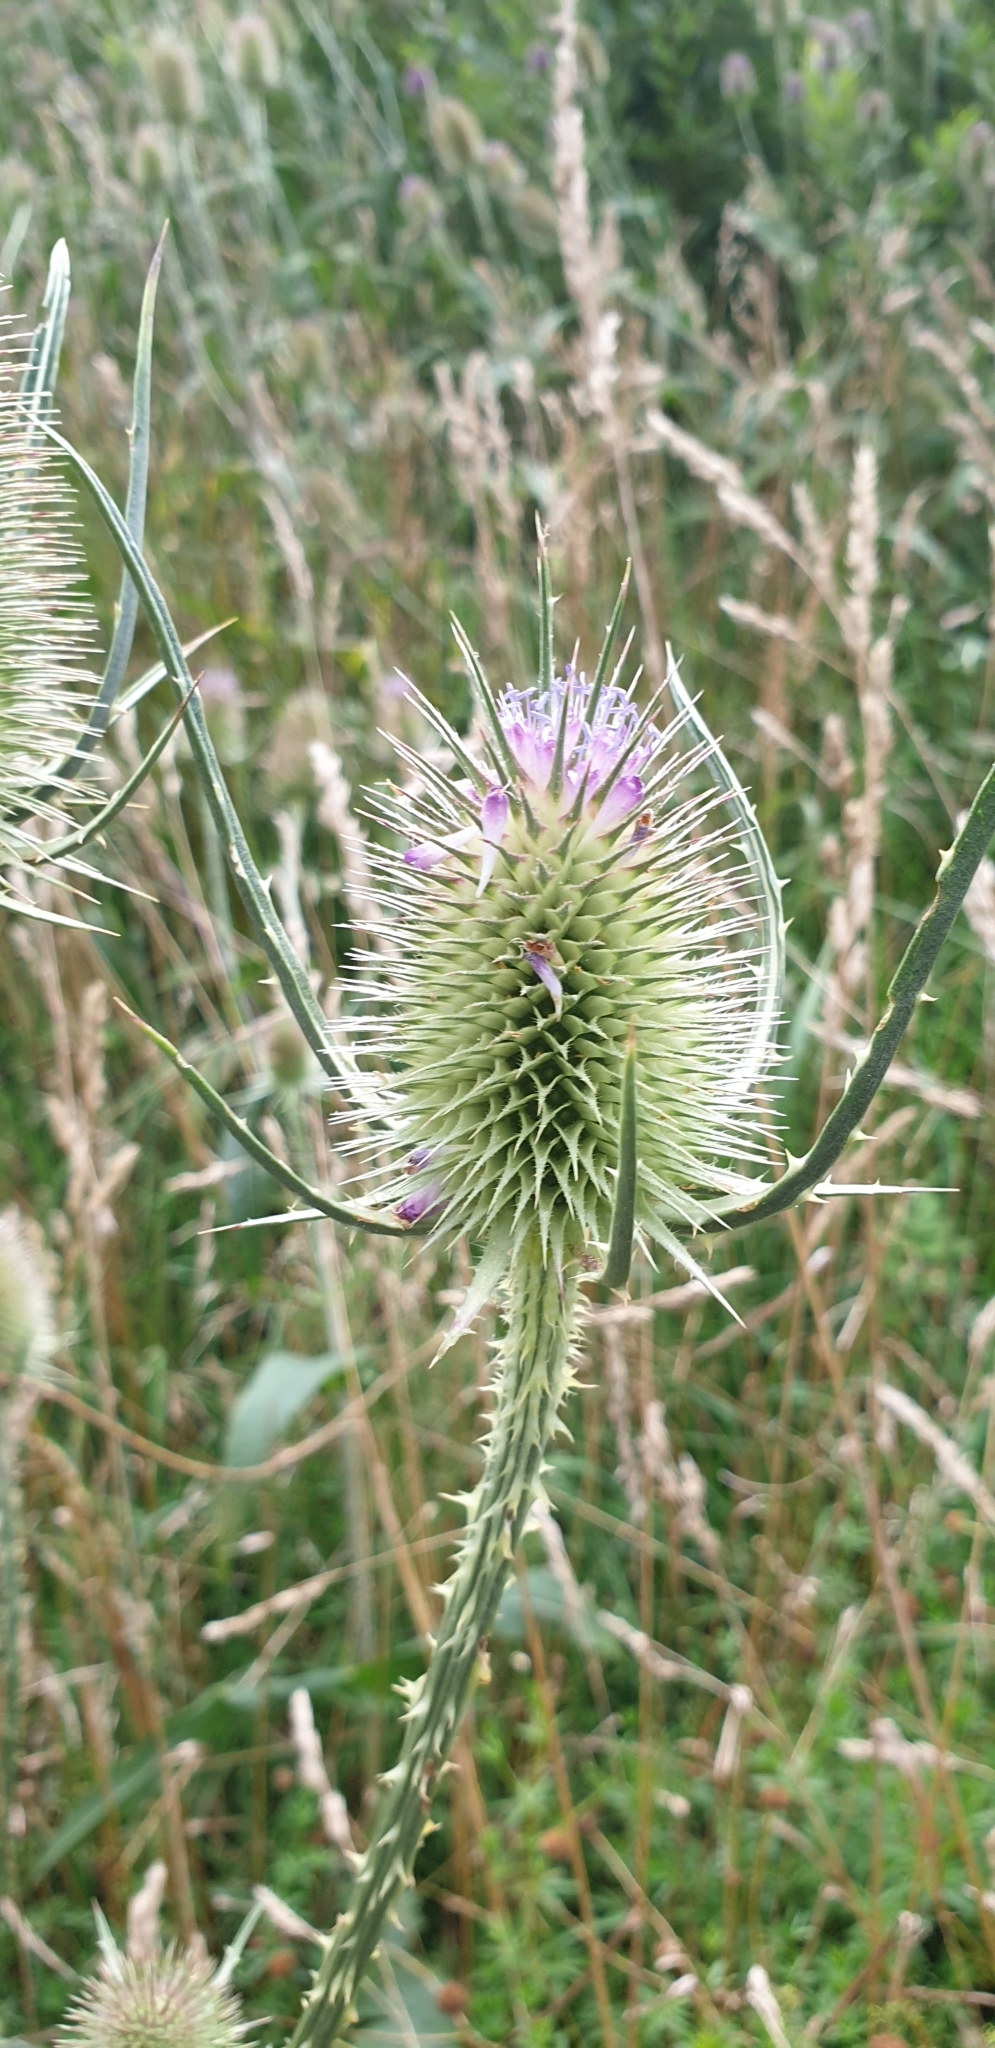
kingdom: Plantae
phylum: Tracheophyta
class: Magnoliopsida
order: Dipsacales
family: Caprifoliaceae
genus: Dipsacus
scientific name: Dipsacus fullonum
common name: Teasel
